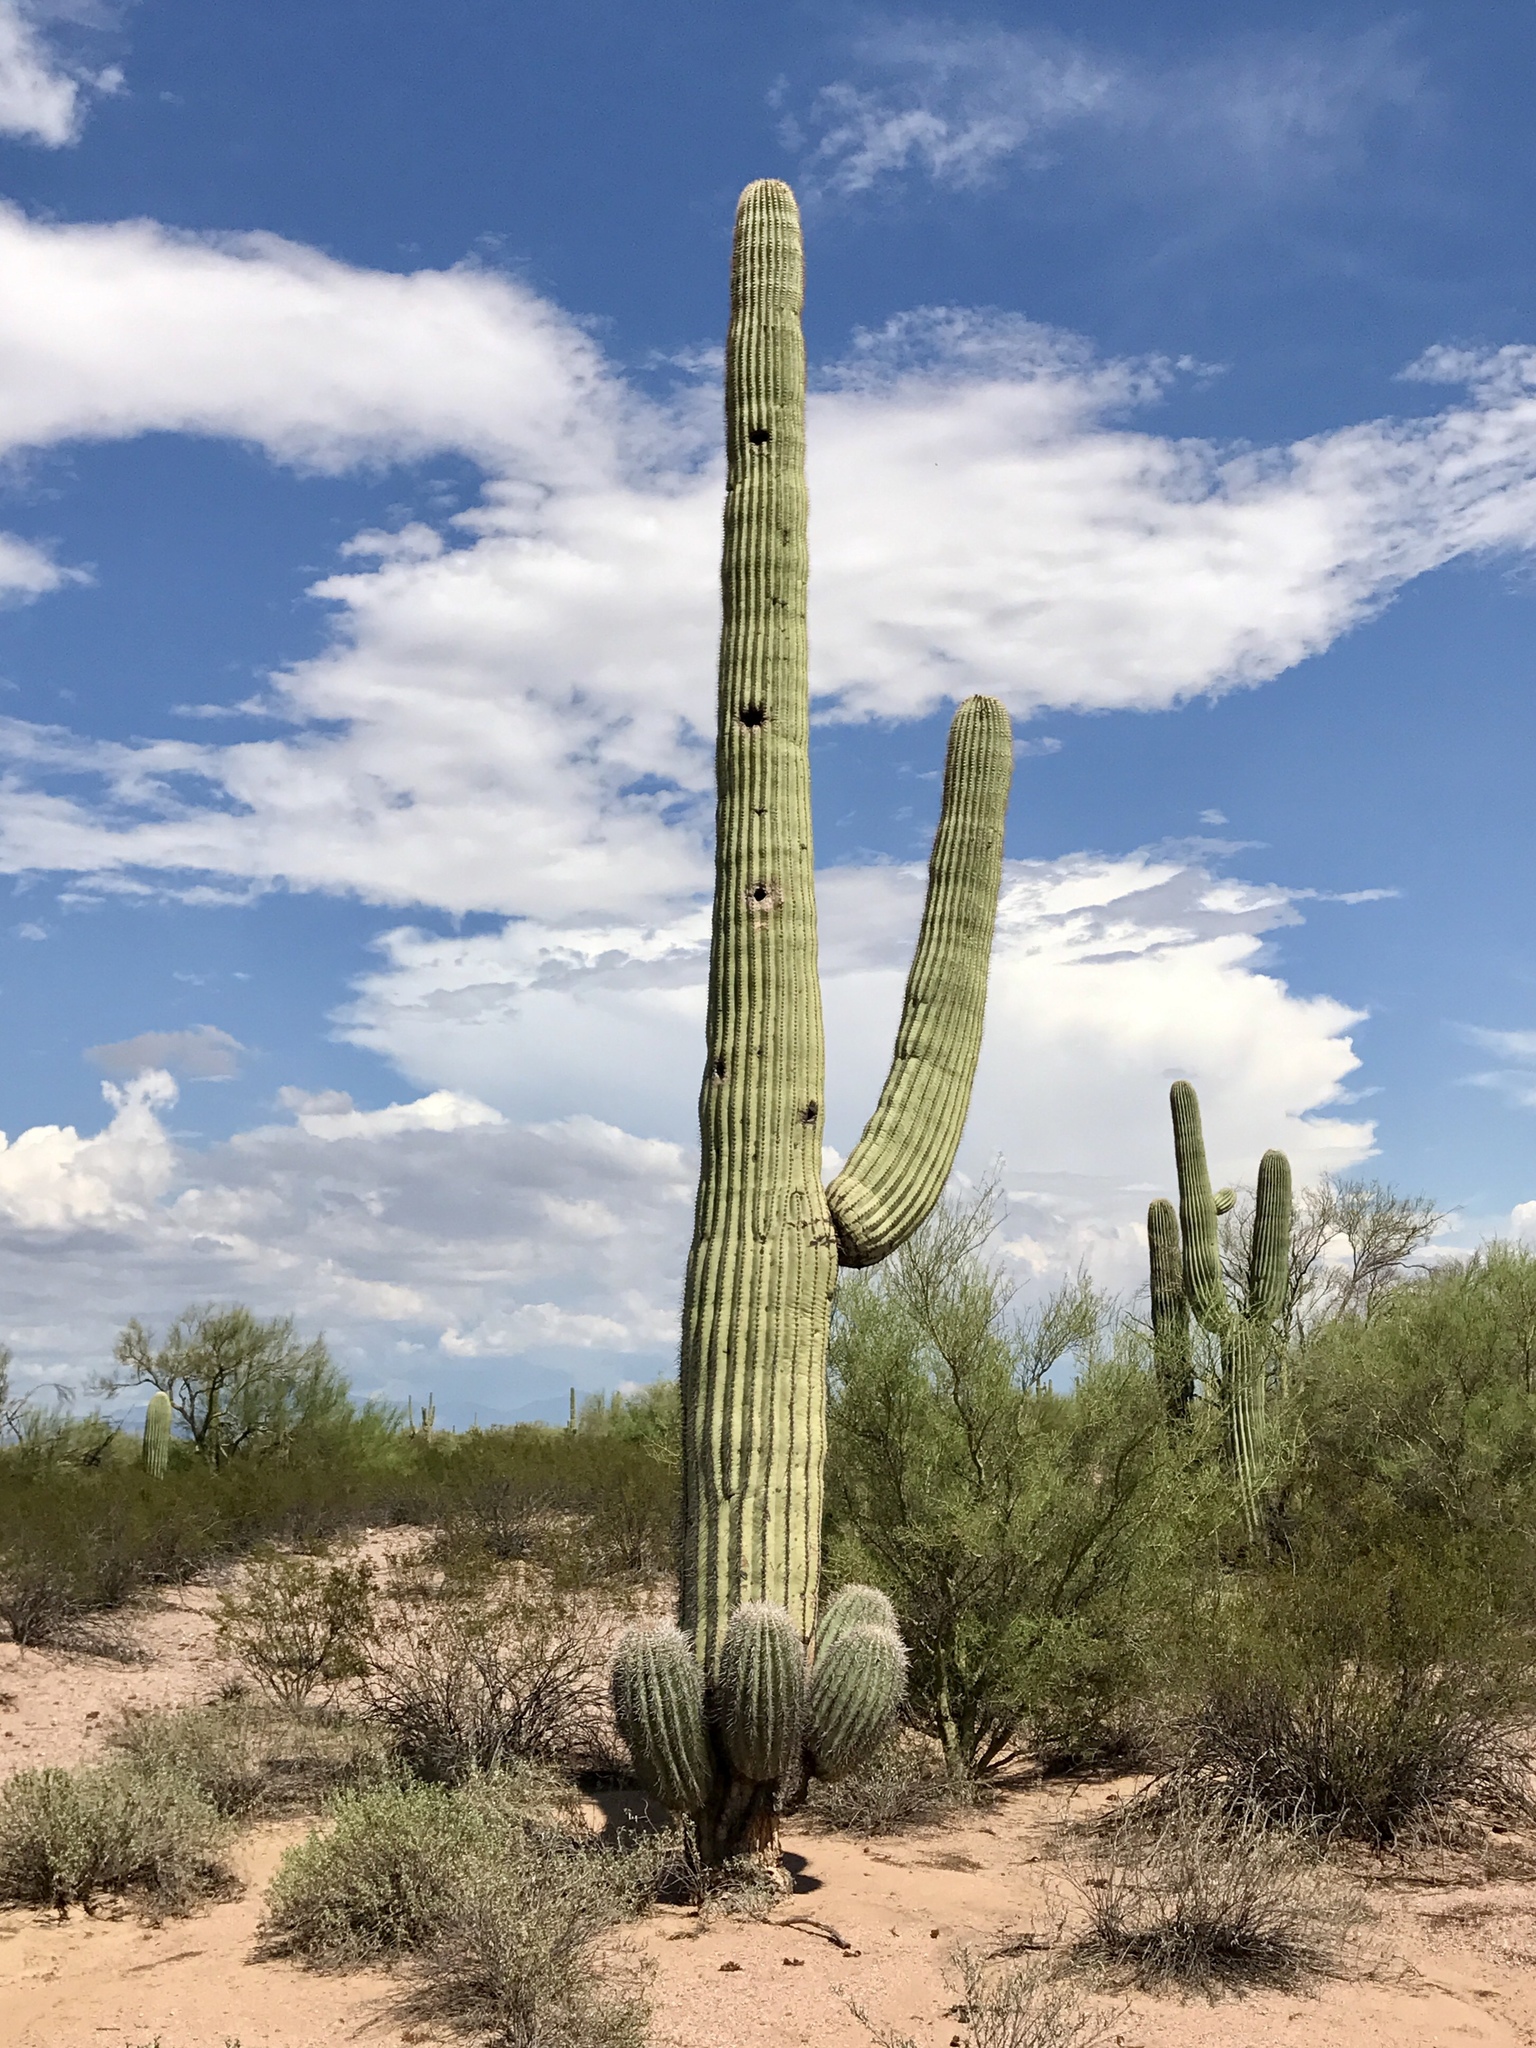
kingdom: Plantae
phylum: Tracheophyta
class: Magnoliopsida
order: Caryophyllales
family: Cactaceae
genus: Carnegiea
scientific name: Carnegiea gigantea
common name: Saguaro
